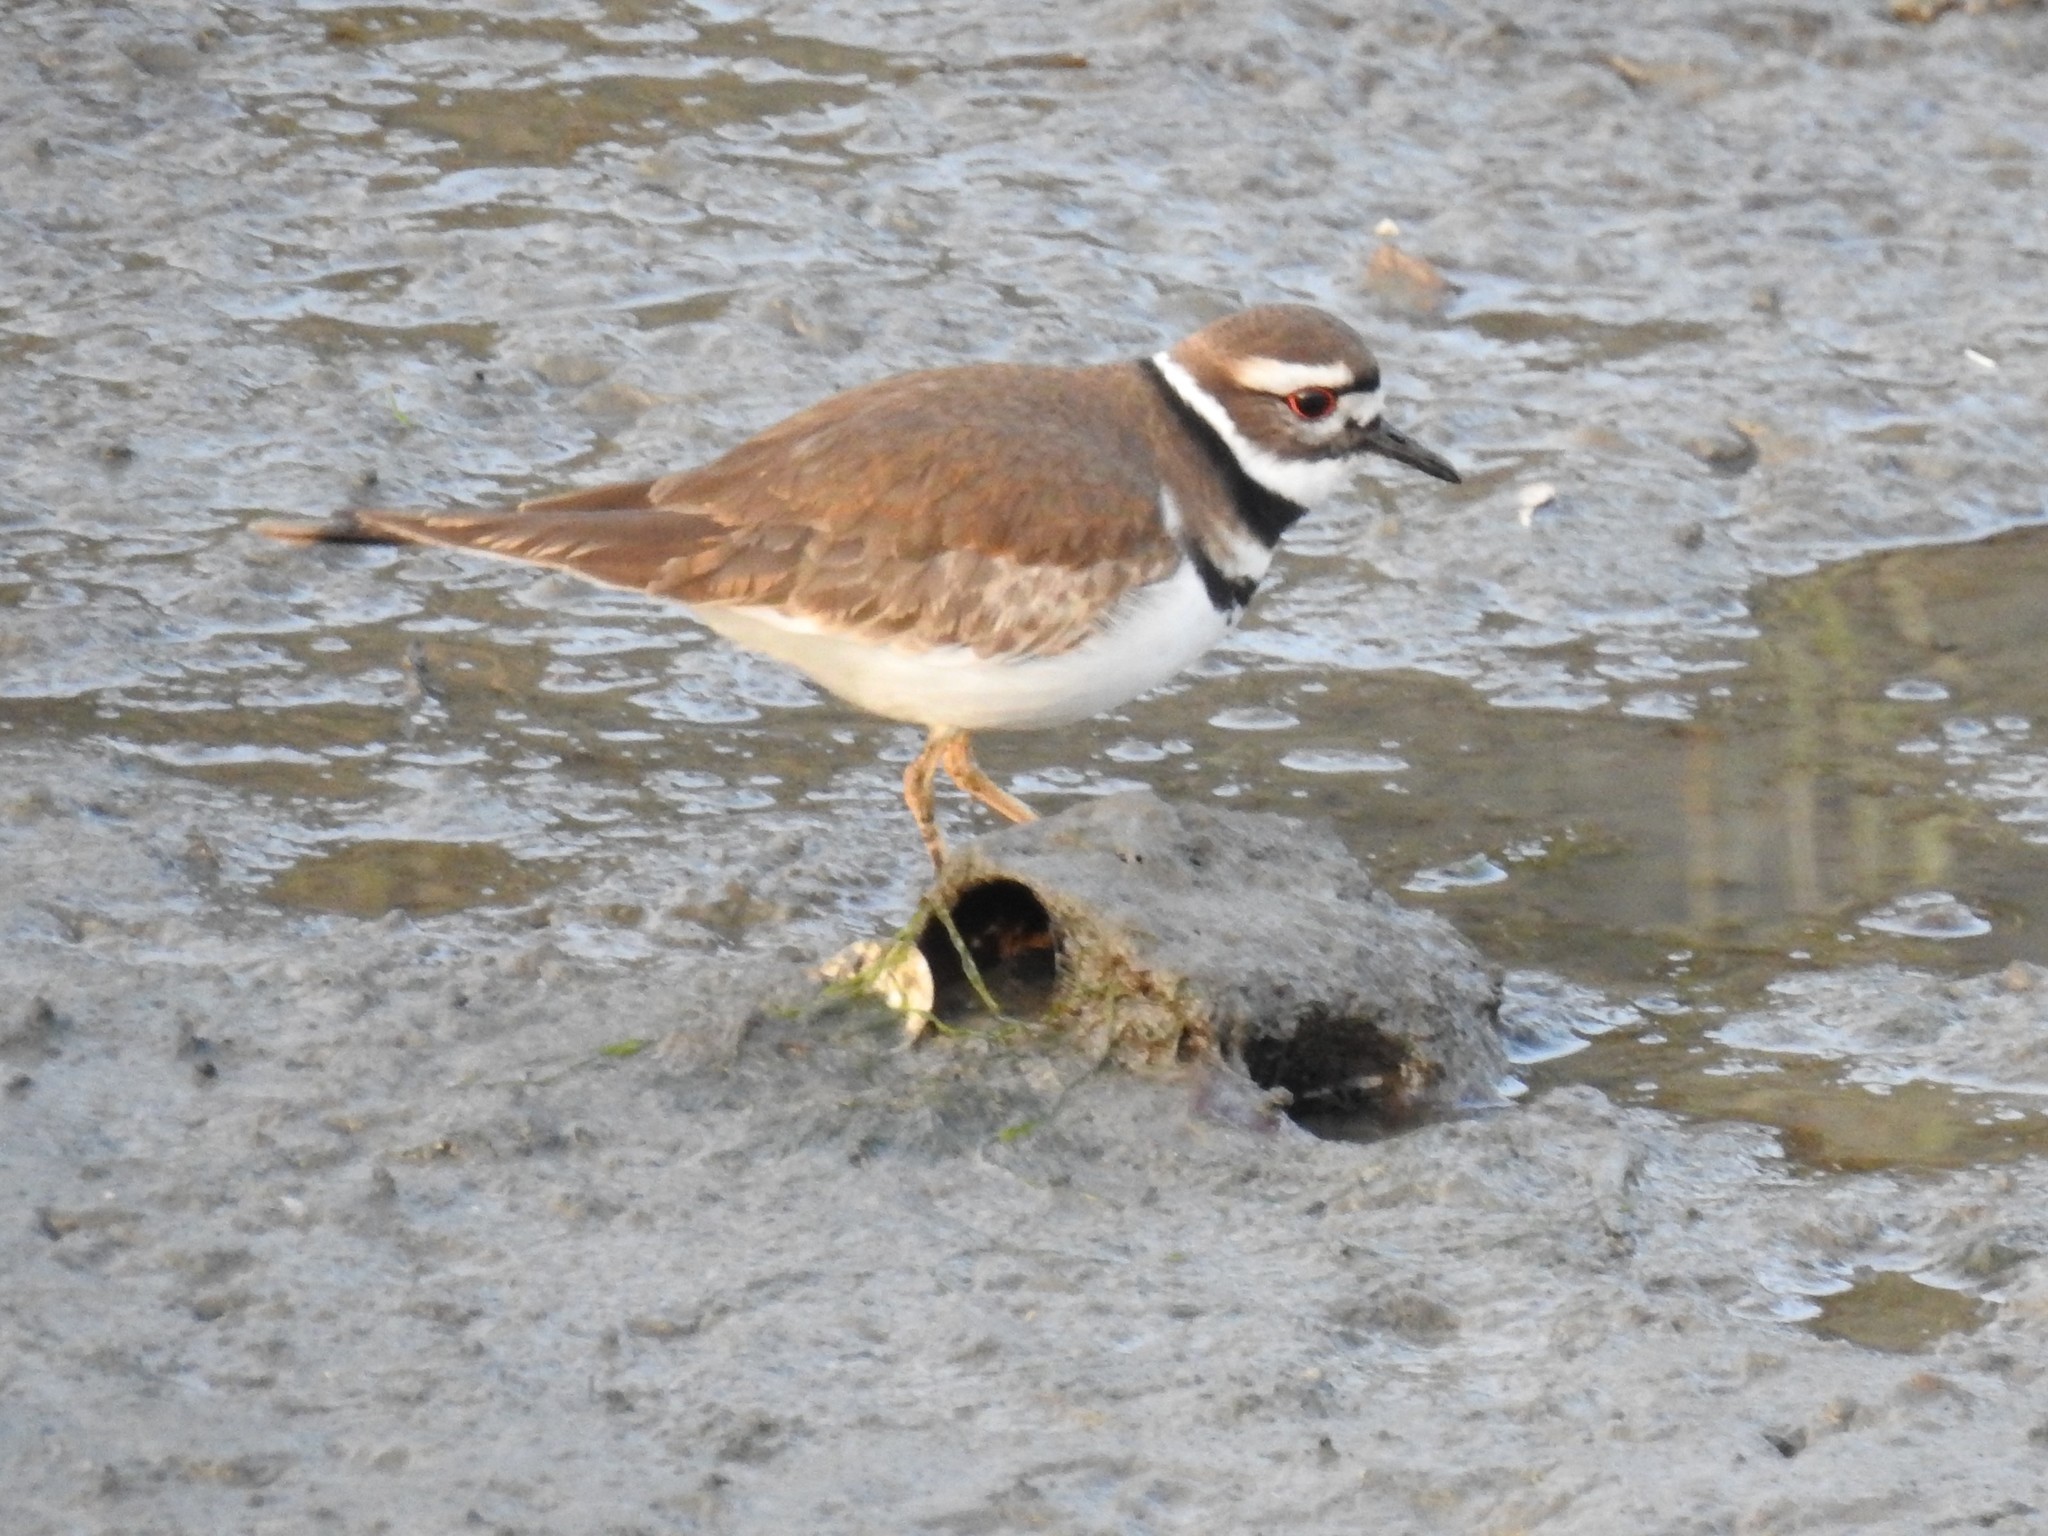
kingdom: Animalia
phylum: Chordata
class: Aves
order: Charadriiformes
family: Charadriidae
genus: Charadrius
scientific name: Charadrius vociferus
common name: Killdeer
